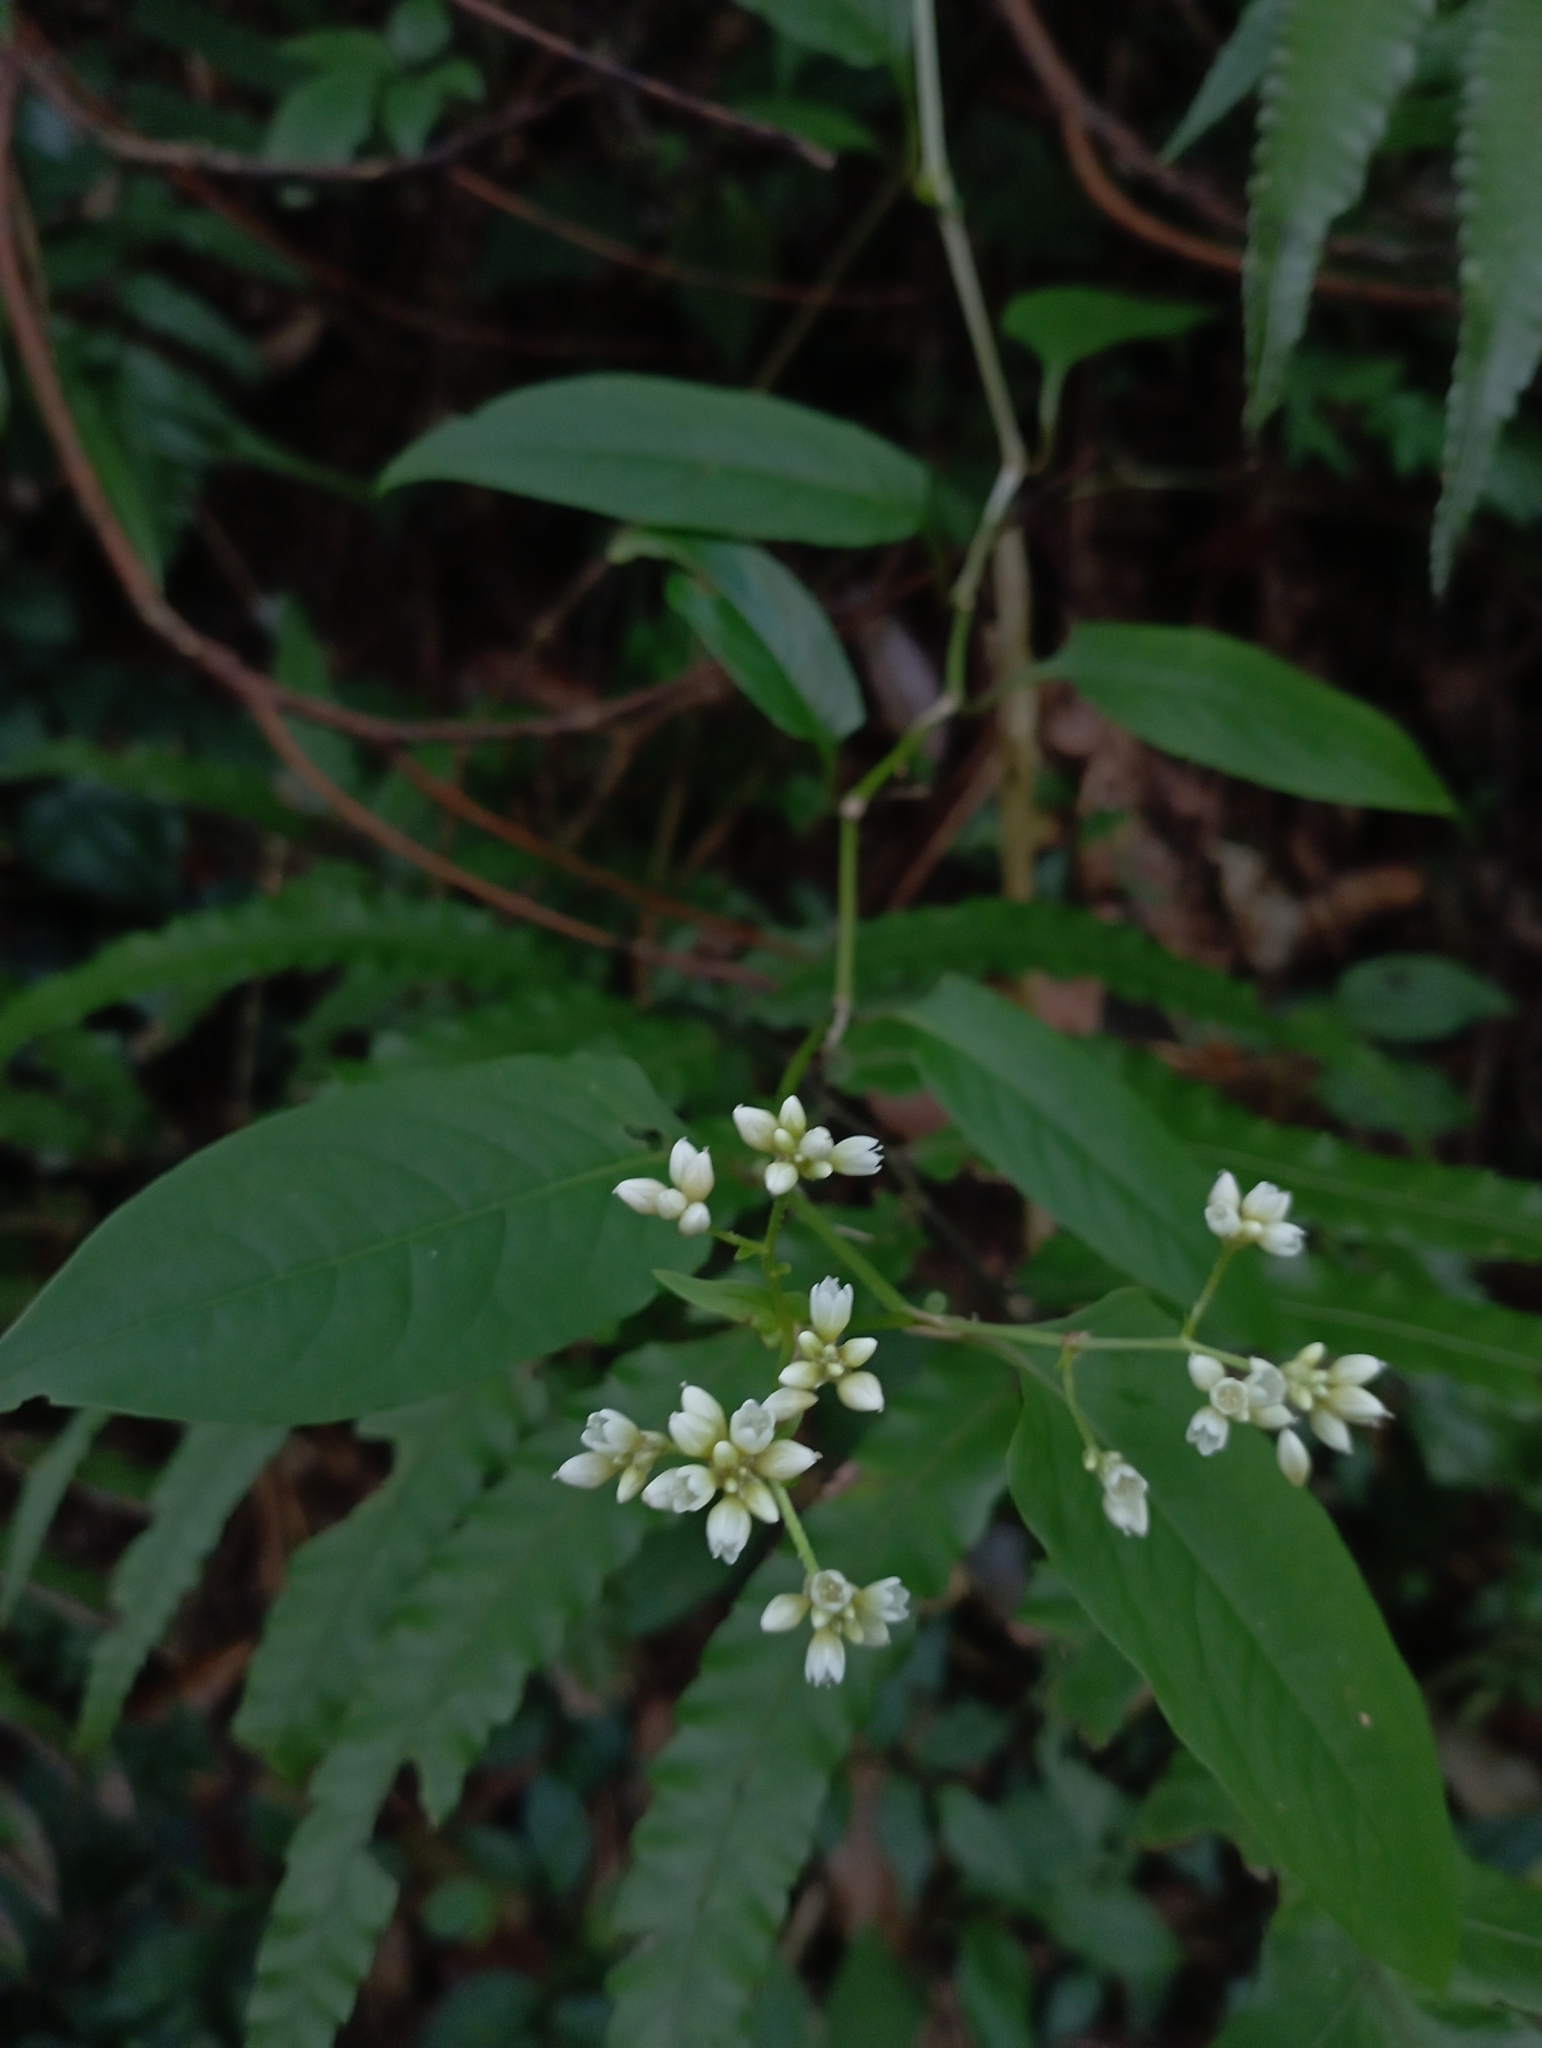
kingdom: Plantae
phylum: Tracheophyta
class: Magnoliopsida
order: Caryophyllales
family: Polygonaceae
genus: Persicaria
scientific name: Persicaria chinensis
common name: Chinese knotweed
